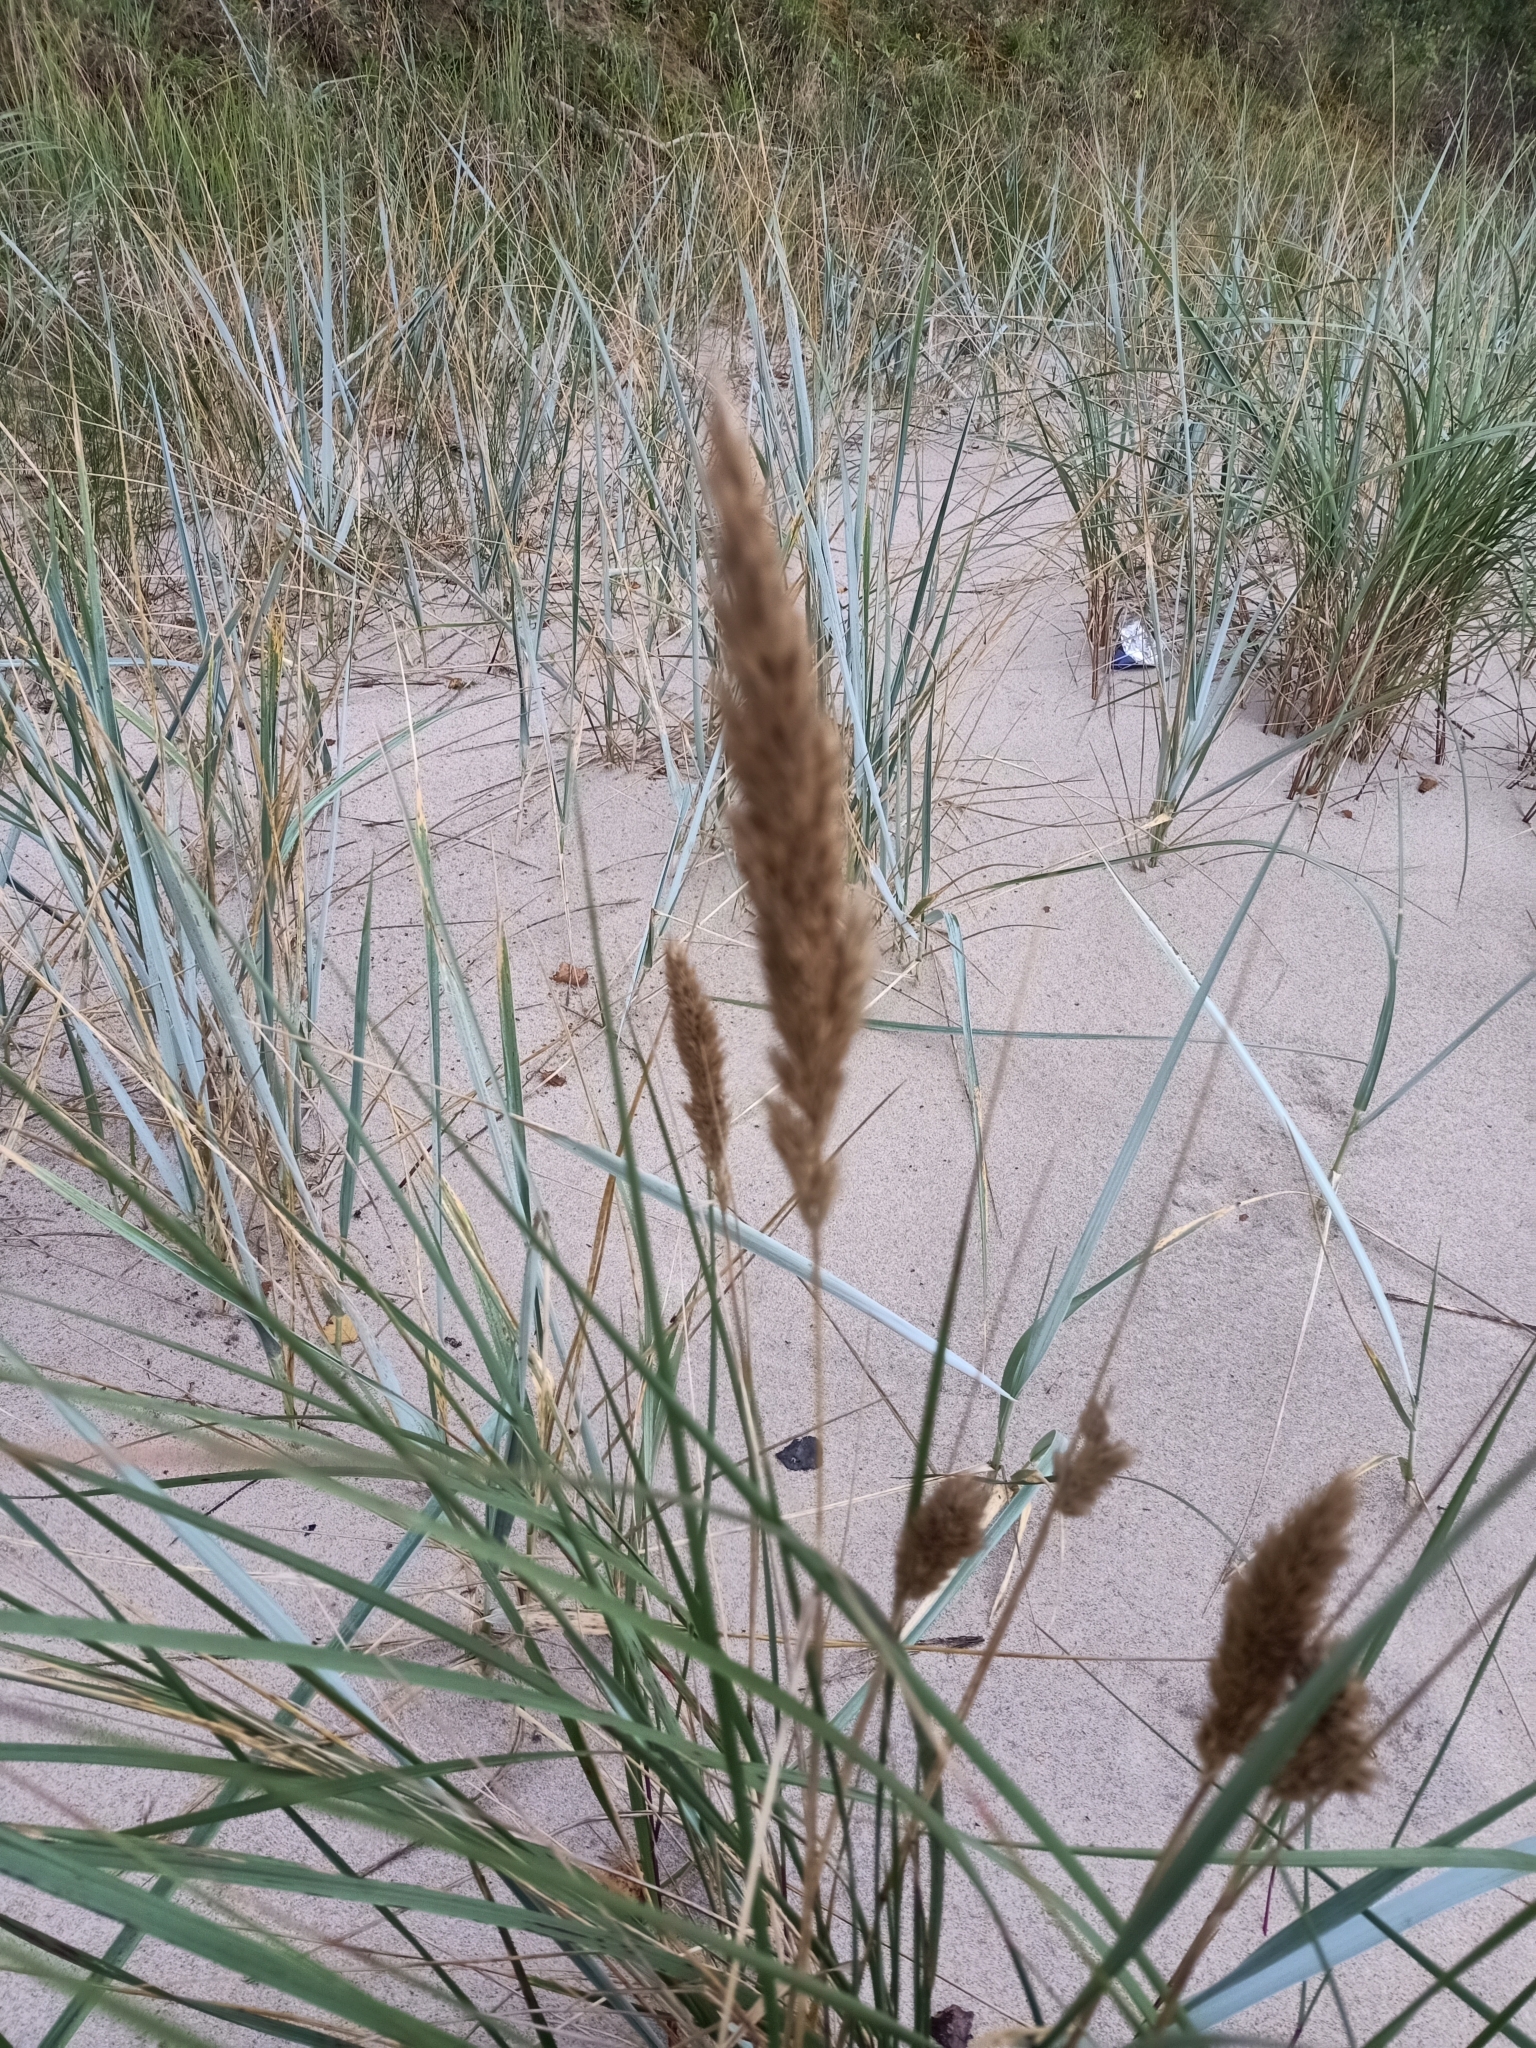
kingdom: Plantae
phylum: Tracheophyta
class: Liliopsida
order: Poales
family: Poaceae
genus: Calamagrostis
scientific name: Calamagrostis arenaria
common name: European beachgrass
